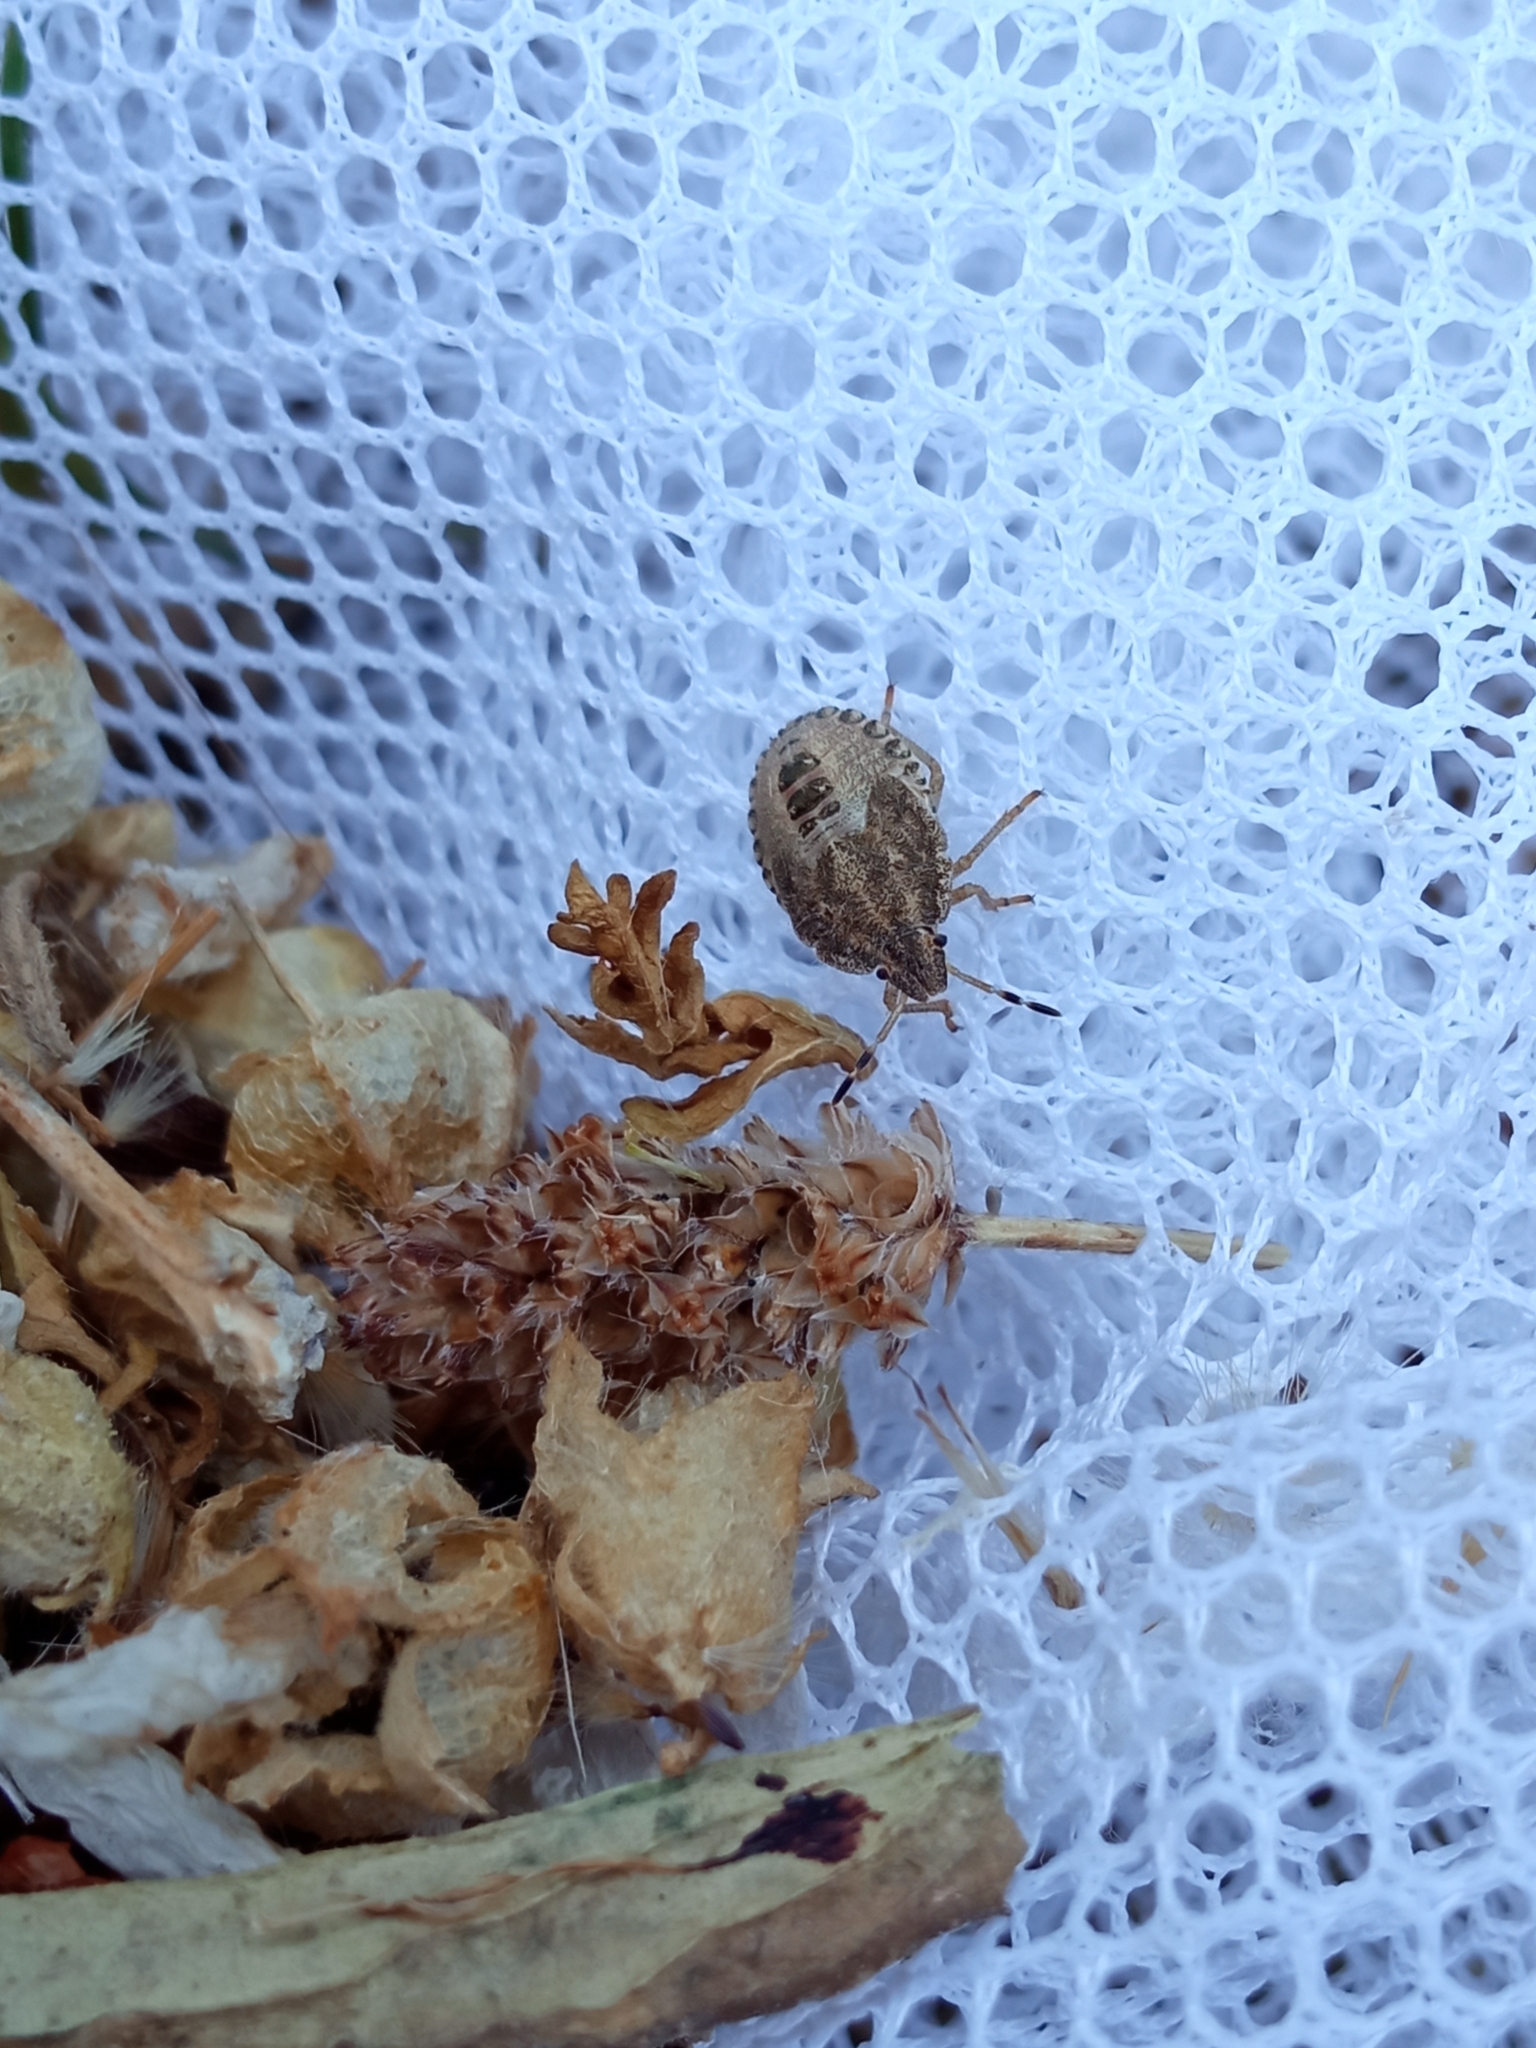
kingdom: Animalia
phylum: Arthropoda
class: Insecta
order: Hemiptera
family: Pentatomidae
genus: Dolycoris
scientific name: Dolycoris baccarum
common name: Sloe bug
